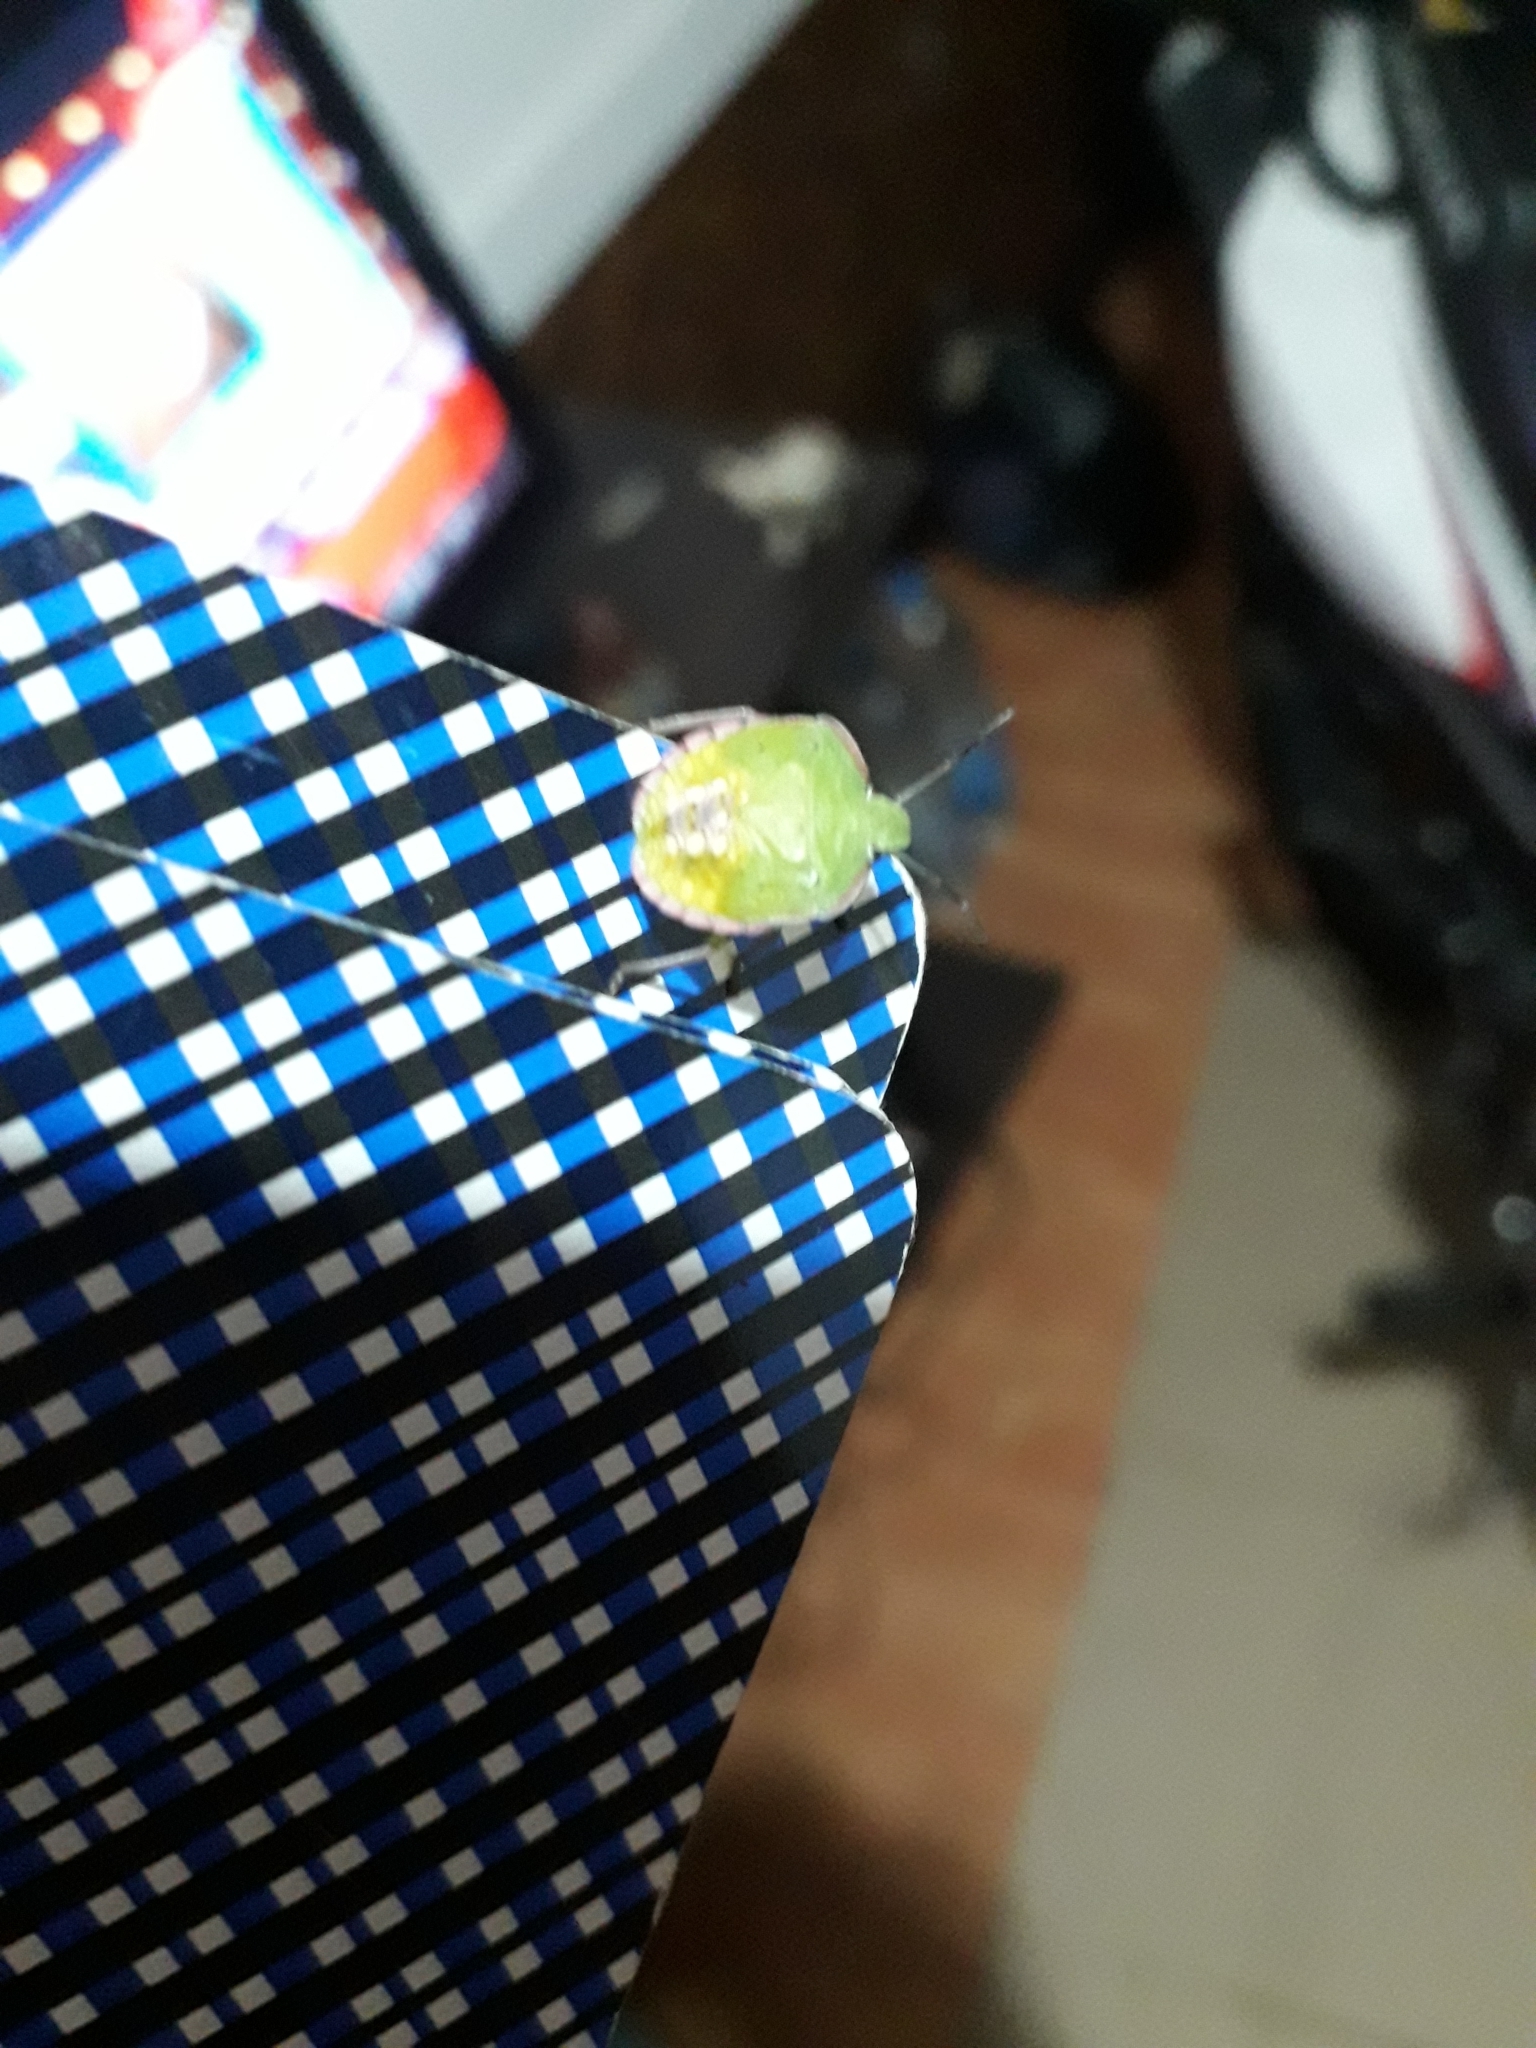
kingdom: Animalia
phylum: Arthropoda
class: Insecta
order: Hemiptera
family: Pentatomidae
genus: Nezara
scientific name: Nezara viridula
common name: Southern green stink bug
